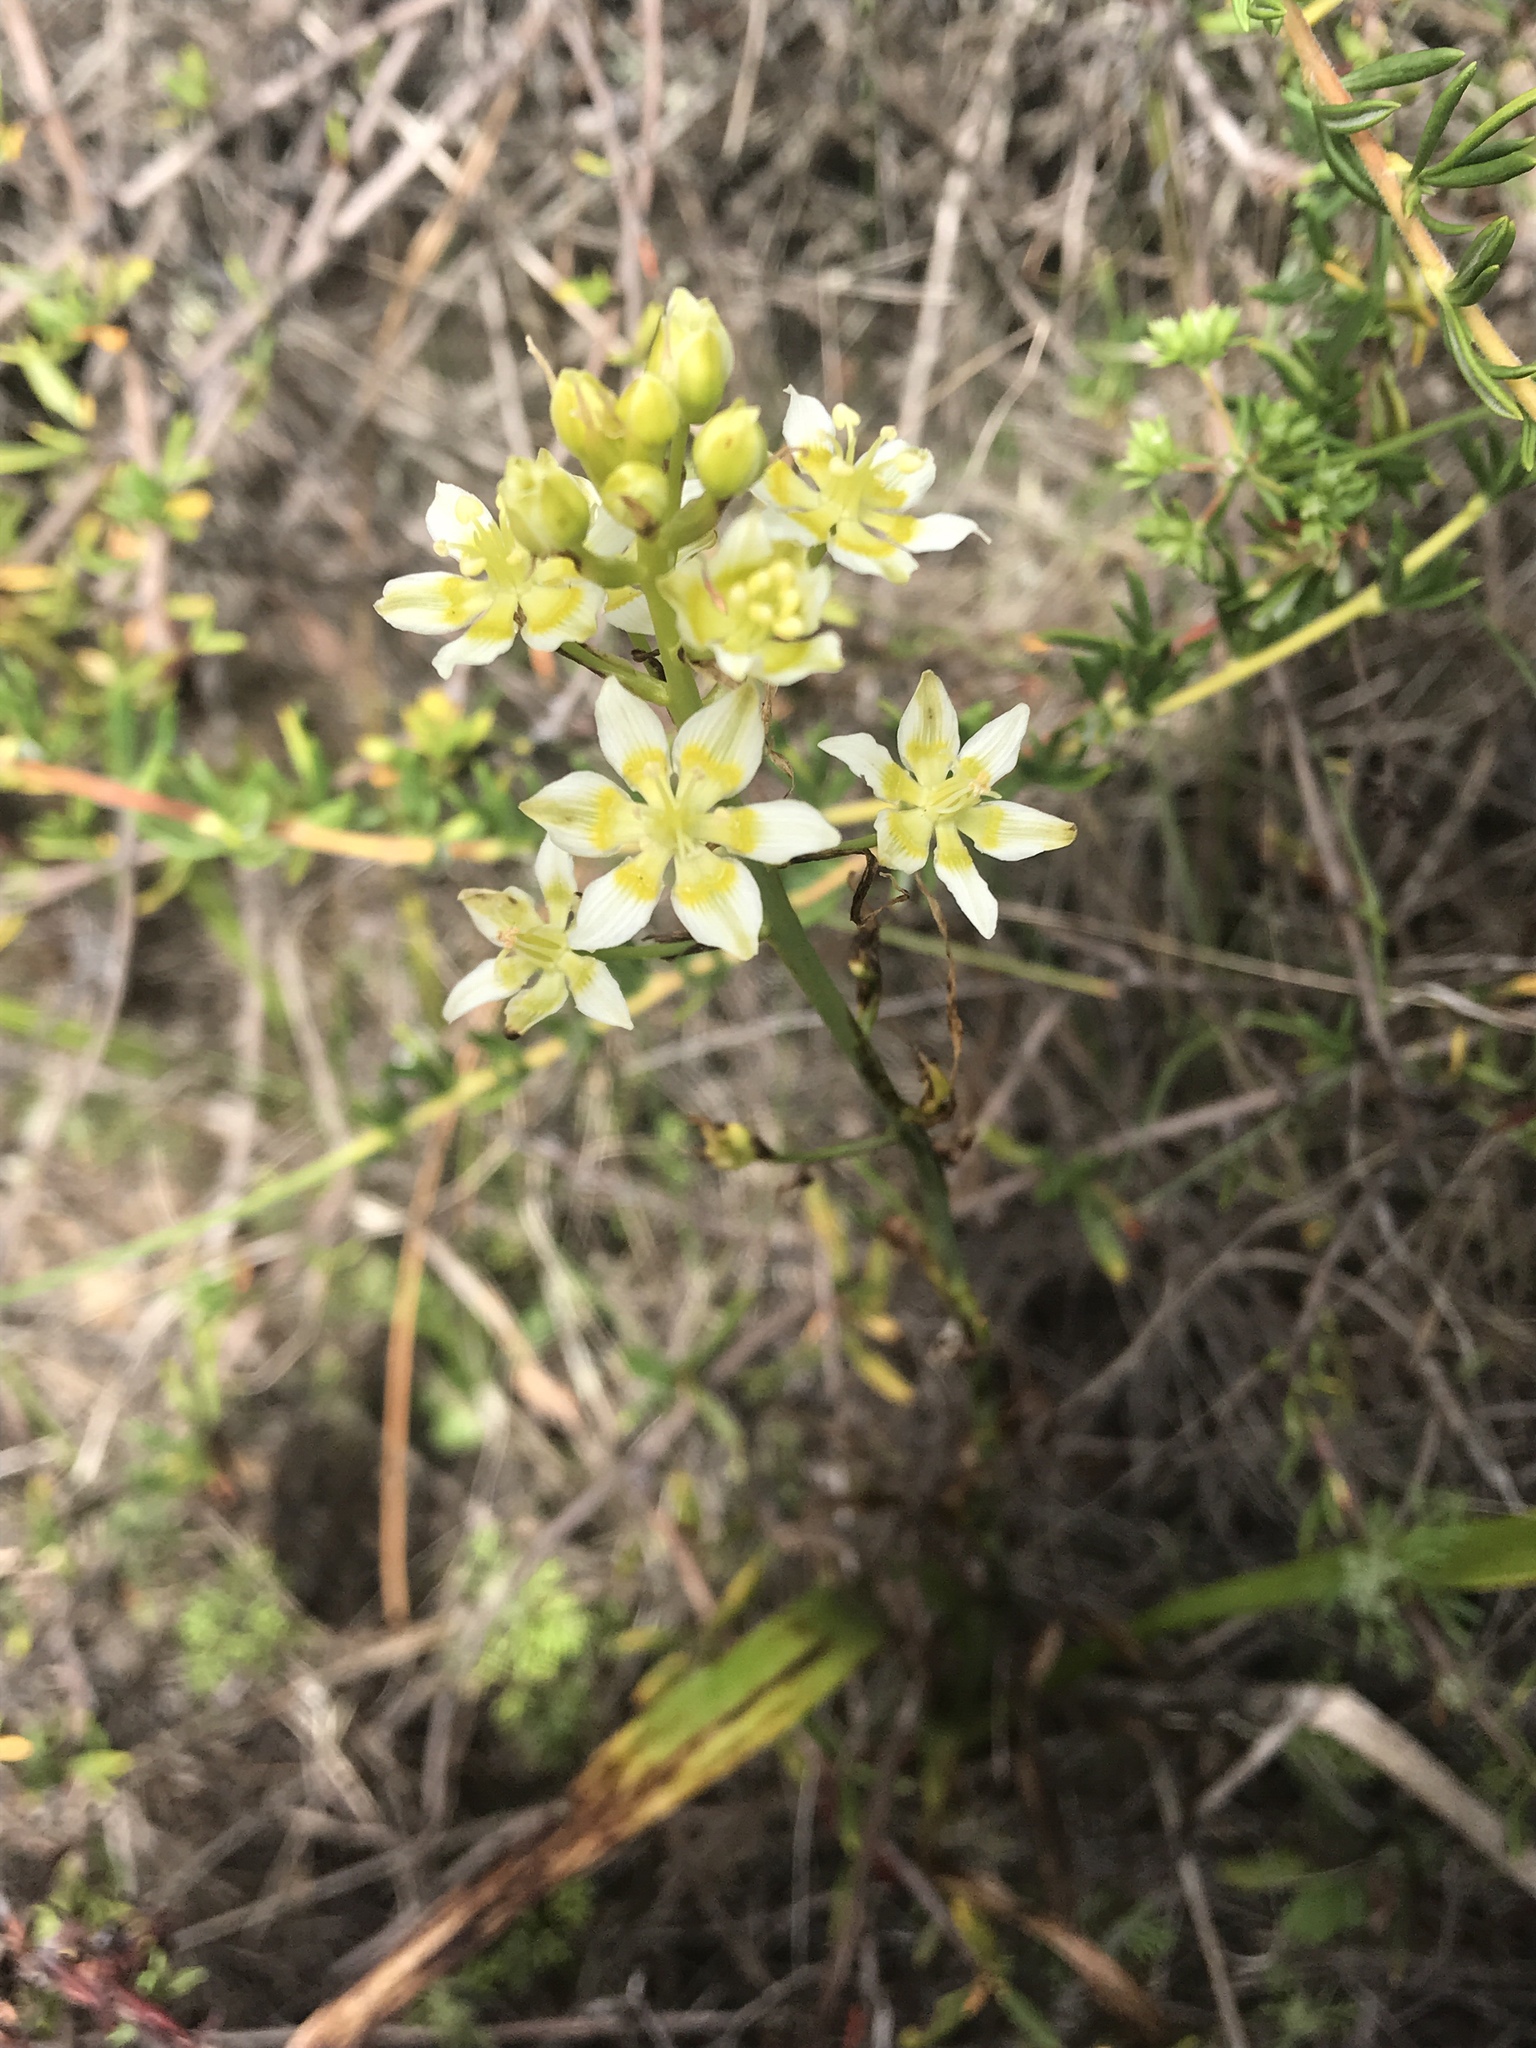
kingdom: Plantae
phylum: Tracheophyta
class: Liliopsida
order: Liliales
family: Melanthiaceae
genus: Toxicoscordion
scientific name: Toxicoscordion fremontii
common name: Fremont's death camas
